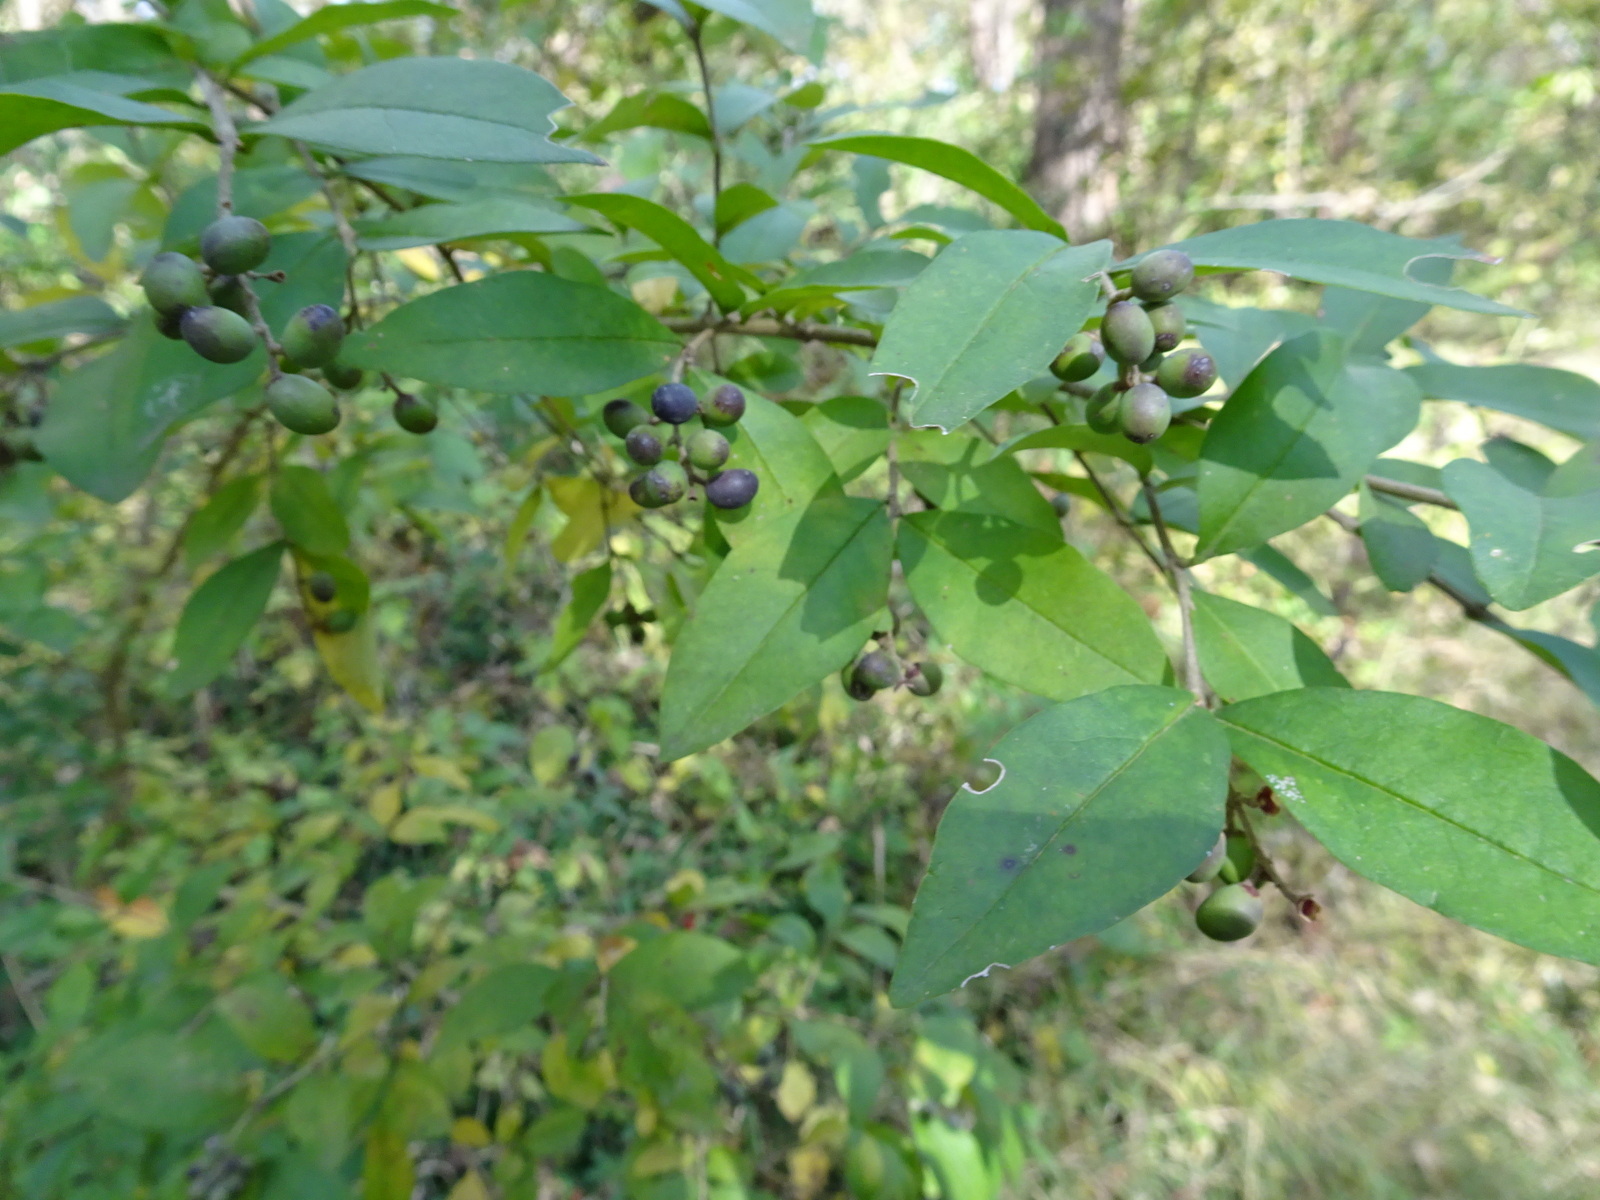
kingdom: Plantae
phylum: Tracheophyta
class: Magnoliopsida
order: Lamiales
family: Oleaceae
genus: Ligustrum
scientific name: Ligustrum obtusifolium
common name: Border privet
